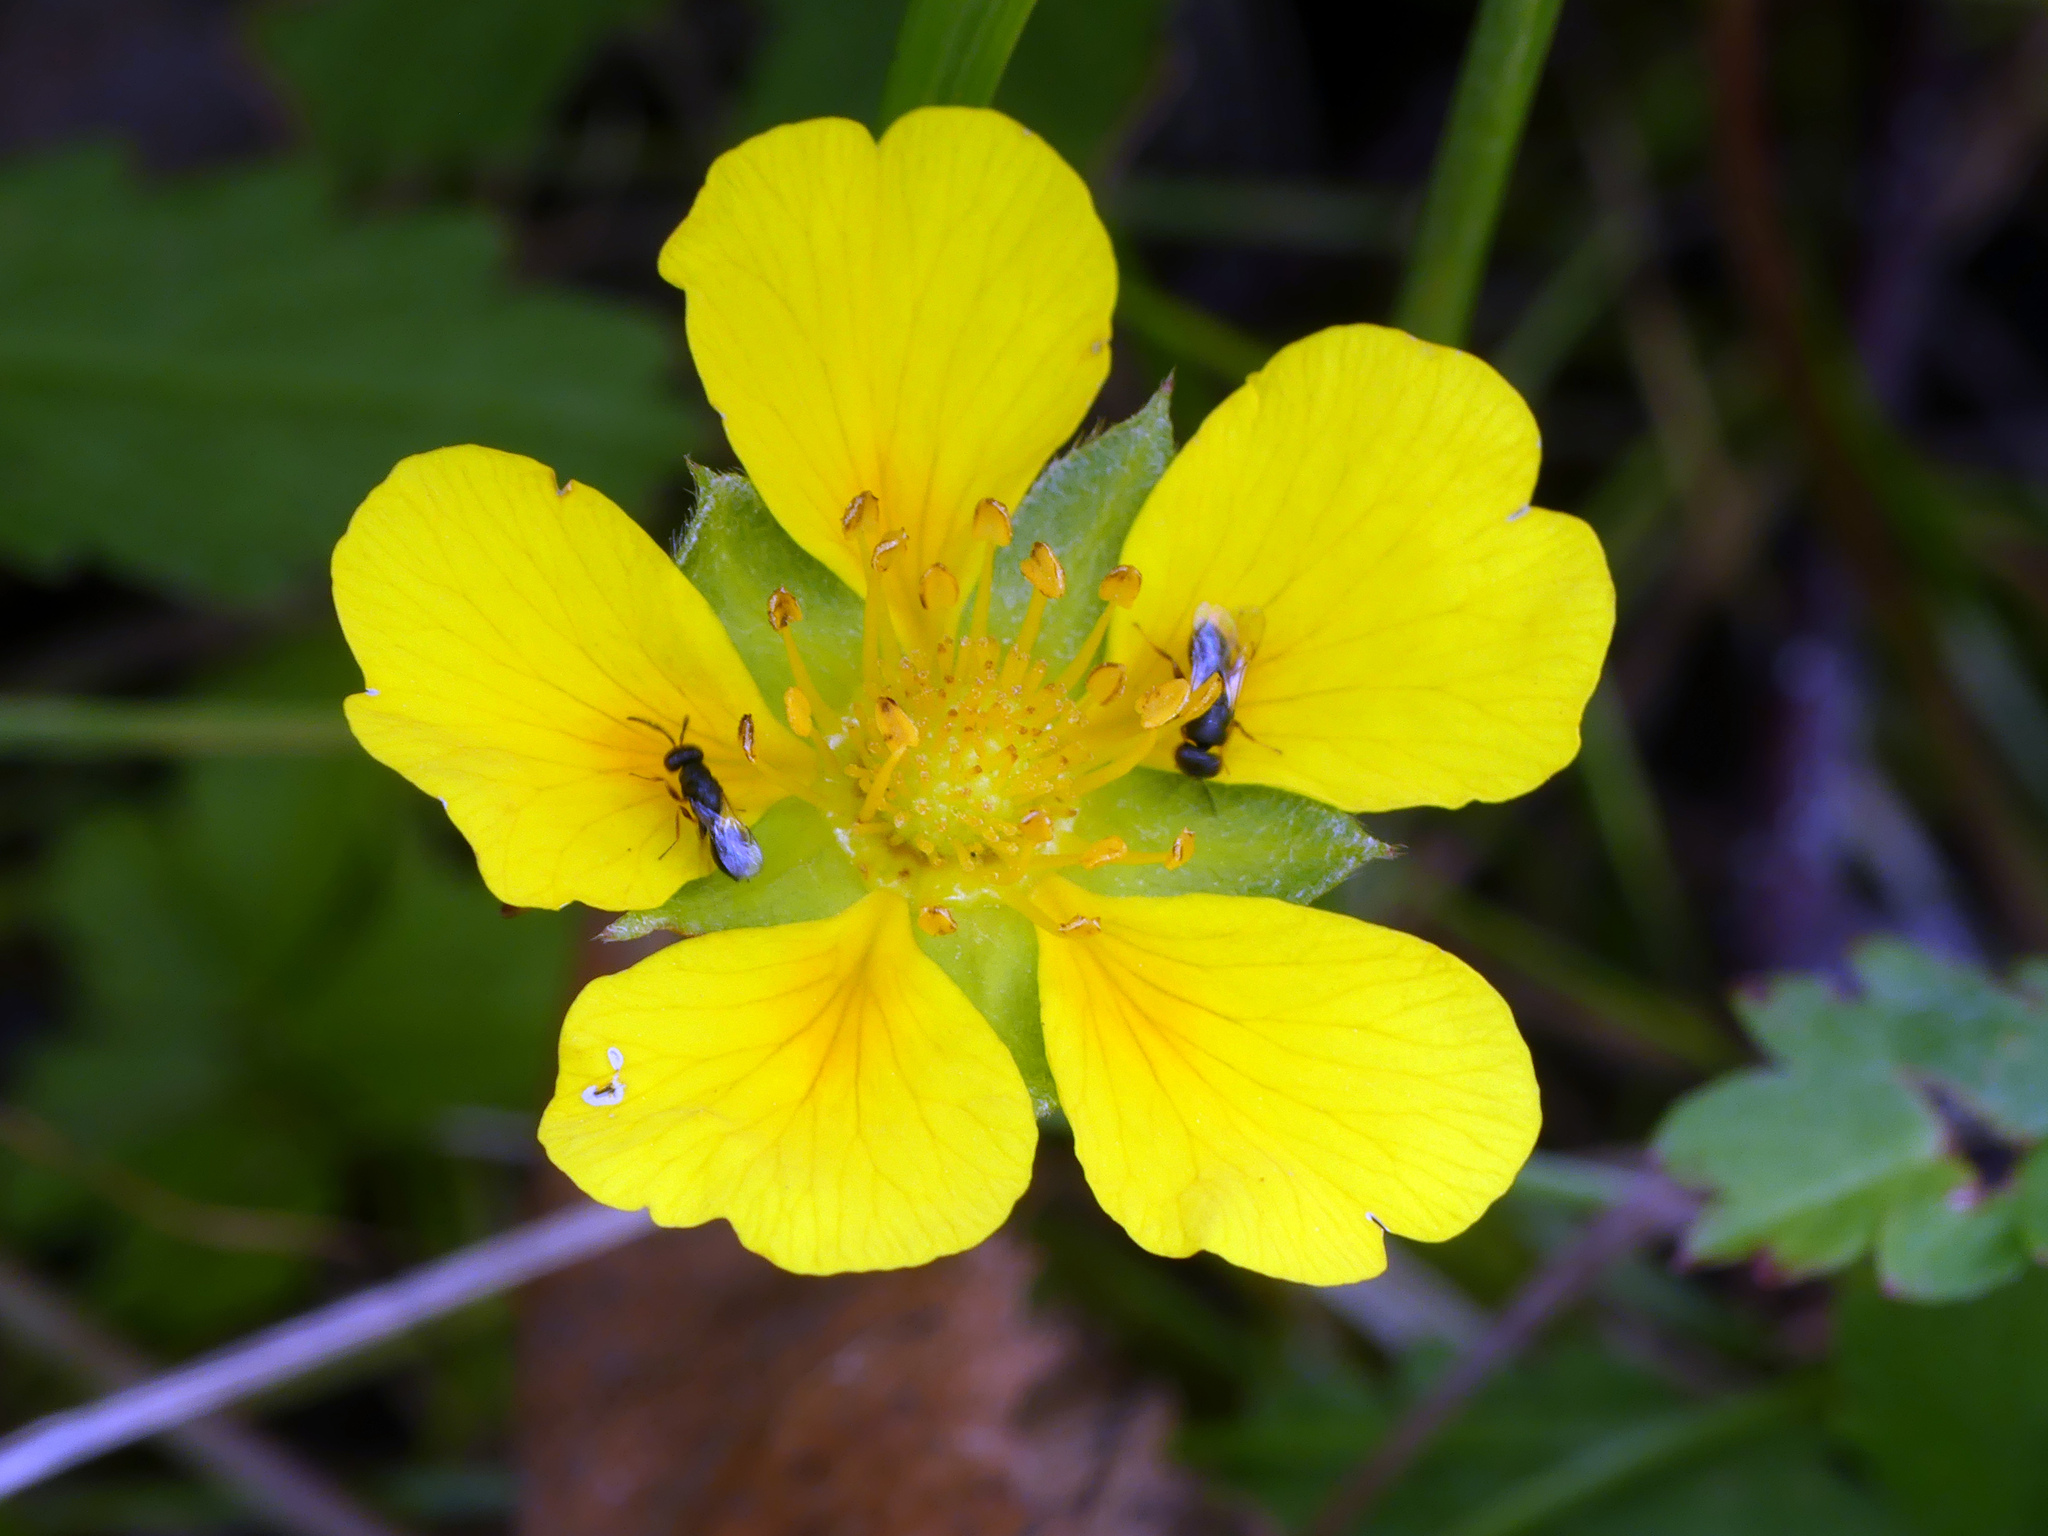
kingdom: Plantae
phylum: Tracheophyta
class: Magnoliopsida
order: Rosales
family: Rosaceae
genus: Potentilla
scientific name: Potentilla reptans
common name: Creeping cinquefoil
